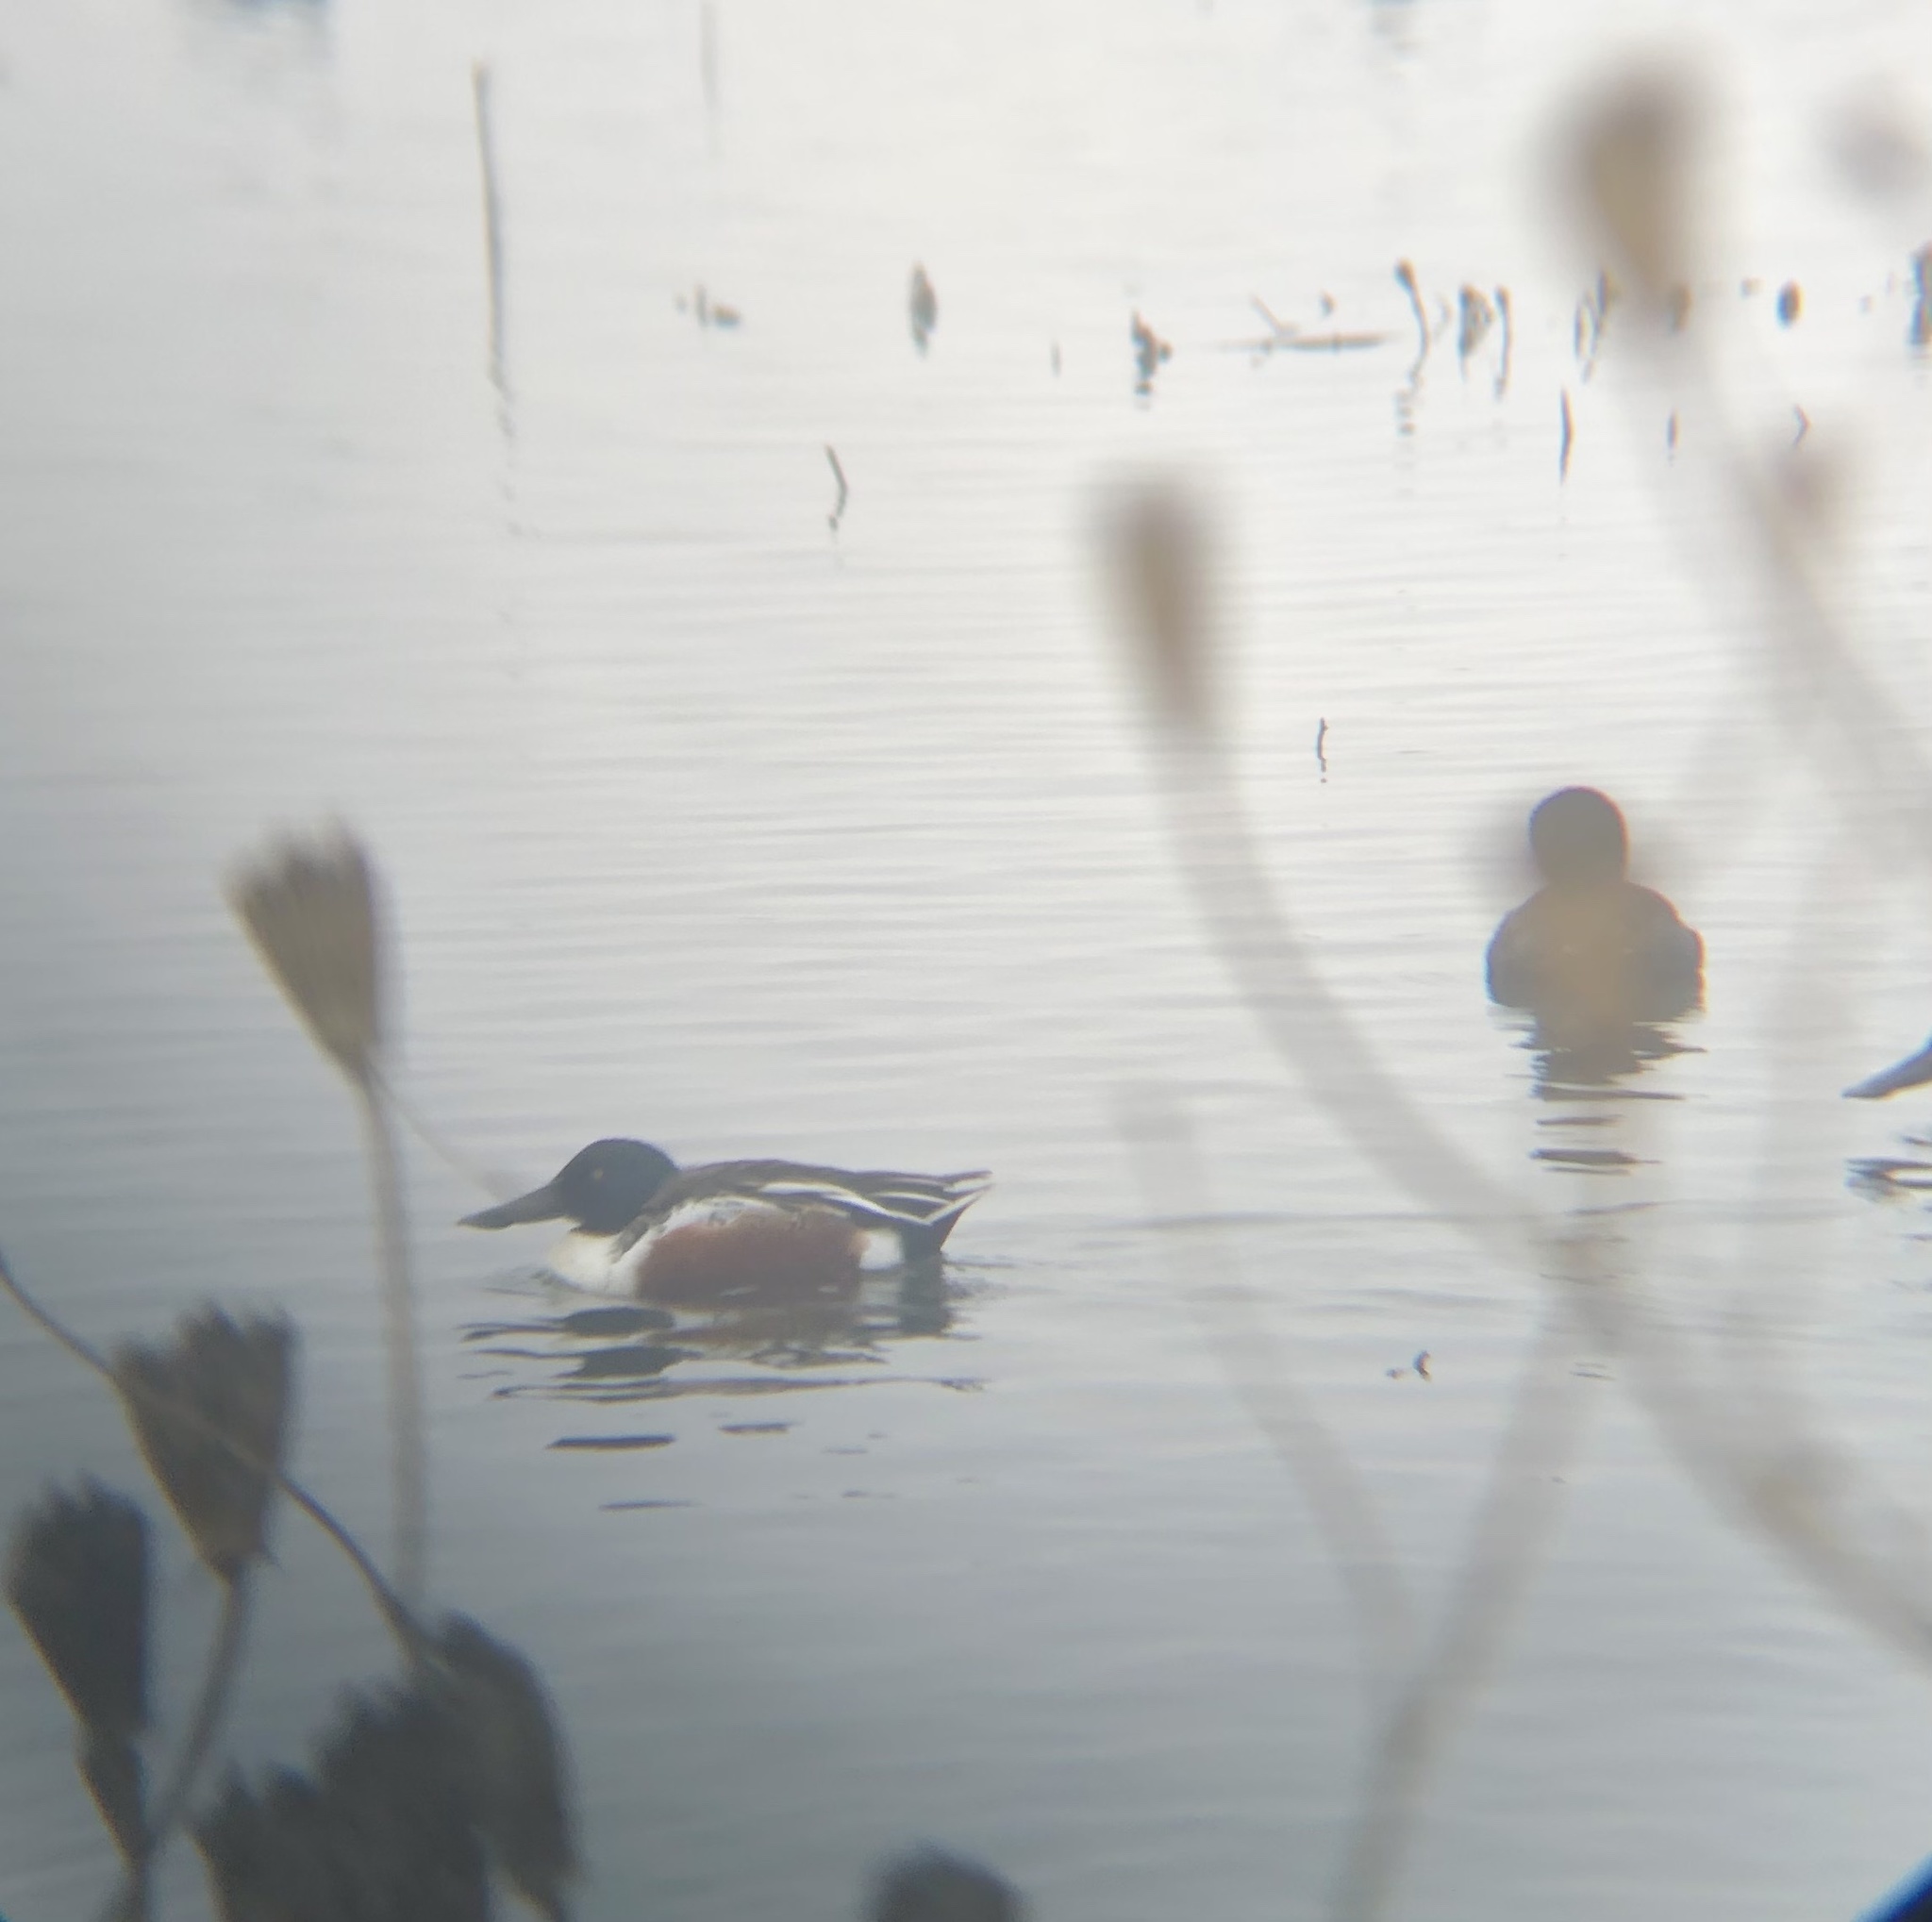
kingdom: Animalia
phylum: Chordata
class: Aves
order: Anseriformes
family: Anatidae
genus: Spatula
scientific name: Spatula clypeata
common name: Northern shoveler
